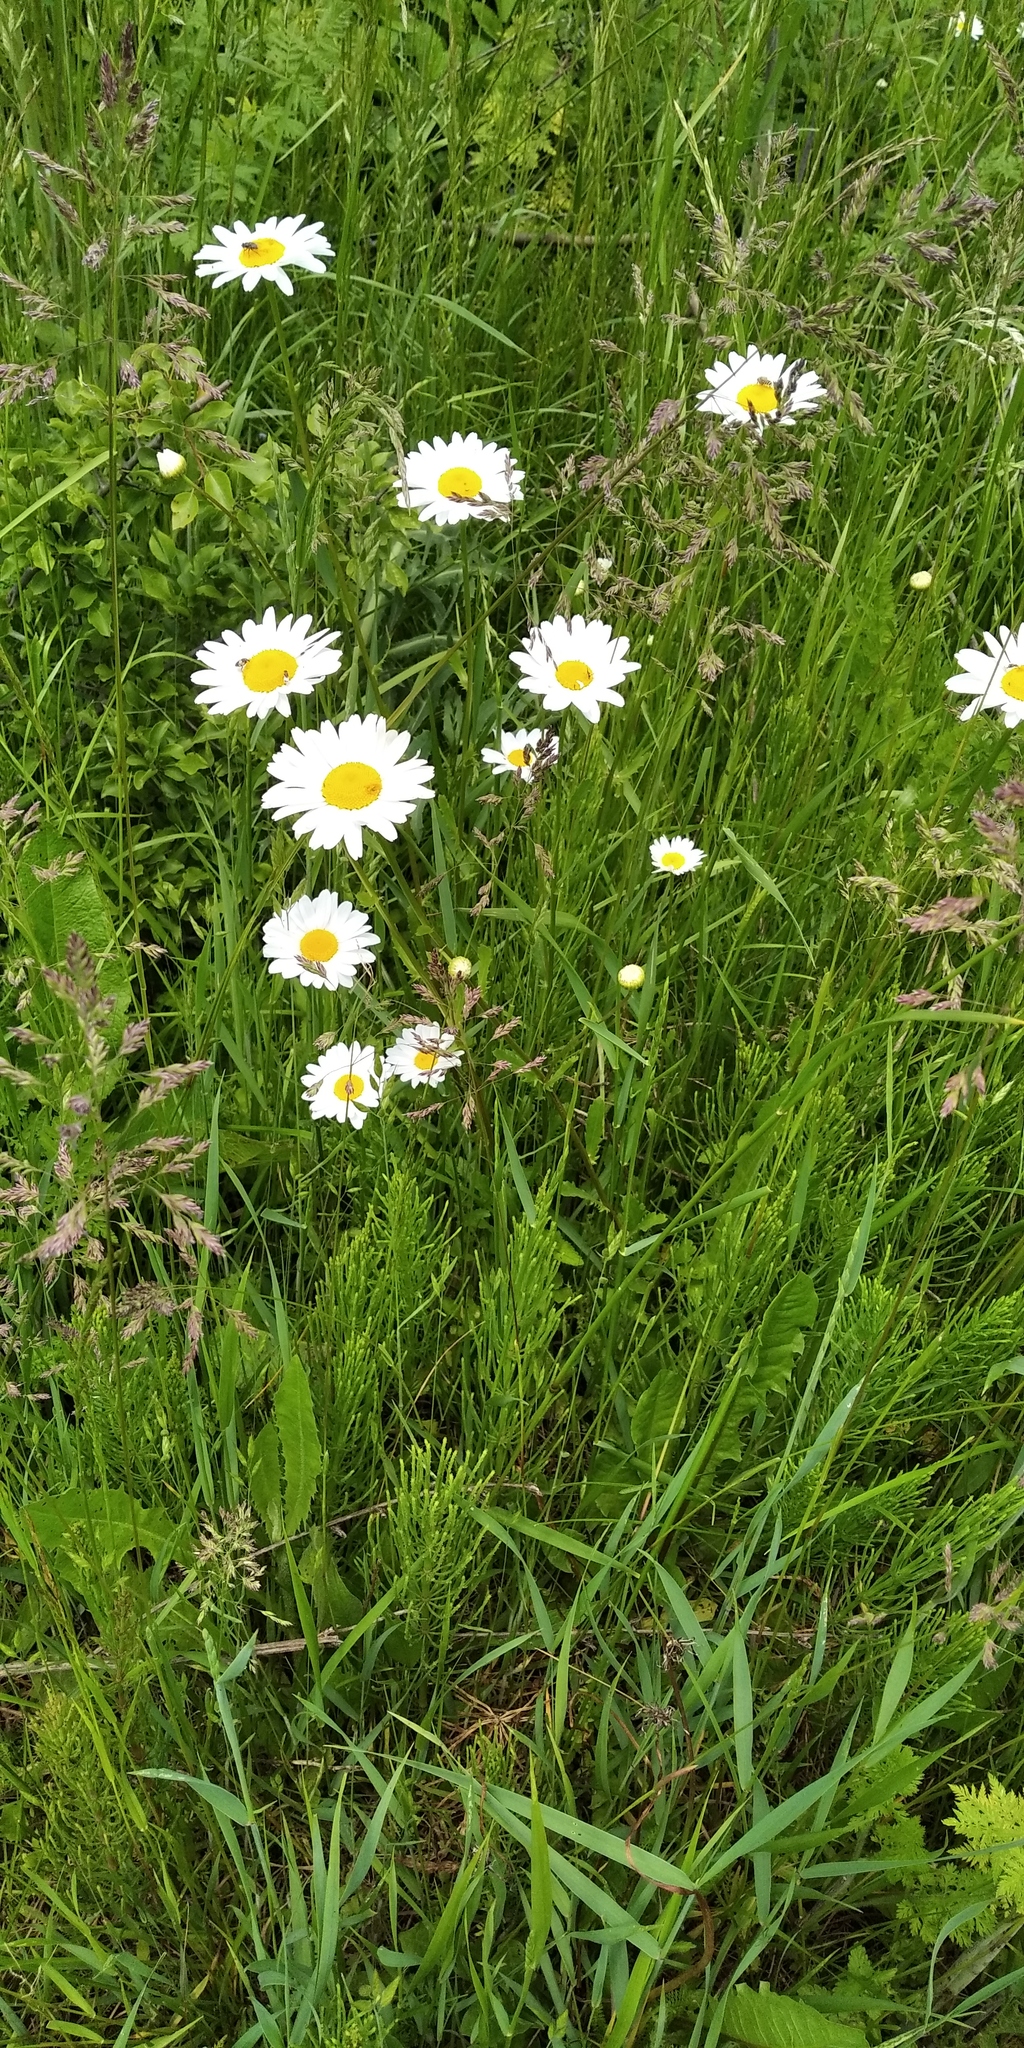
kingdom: Plantae
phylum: Tracheophyta
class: Magnoliopsida
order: Asterales
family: Asteraceae
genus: Leucanthemum
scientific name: Leucanthemum vulgare
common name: Oxeye daisy
